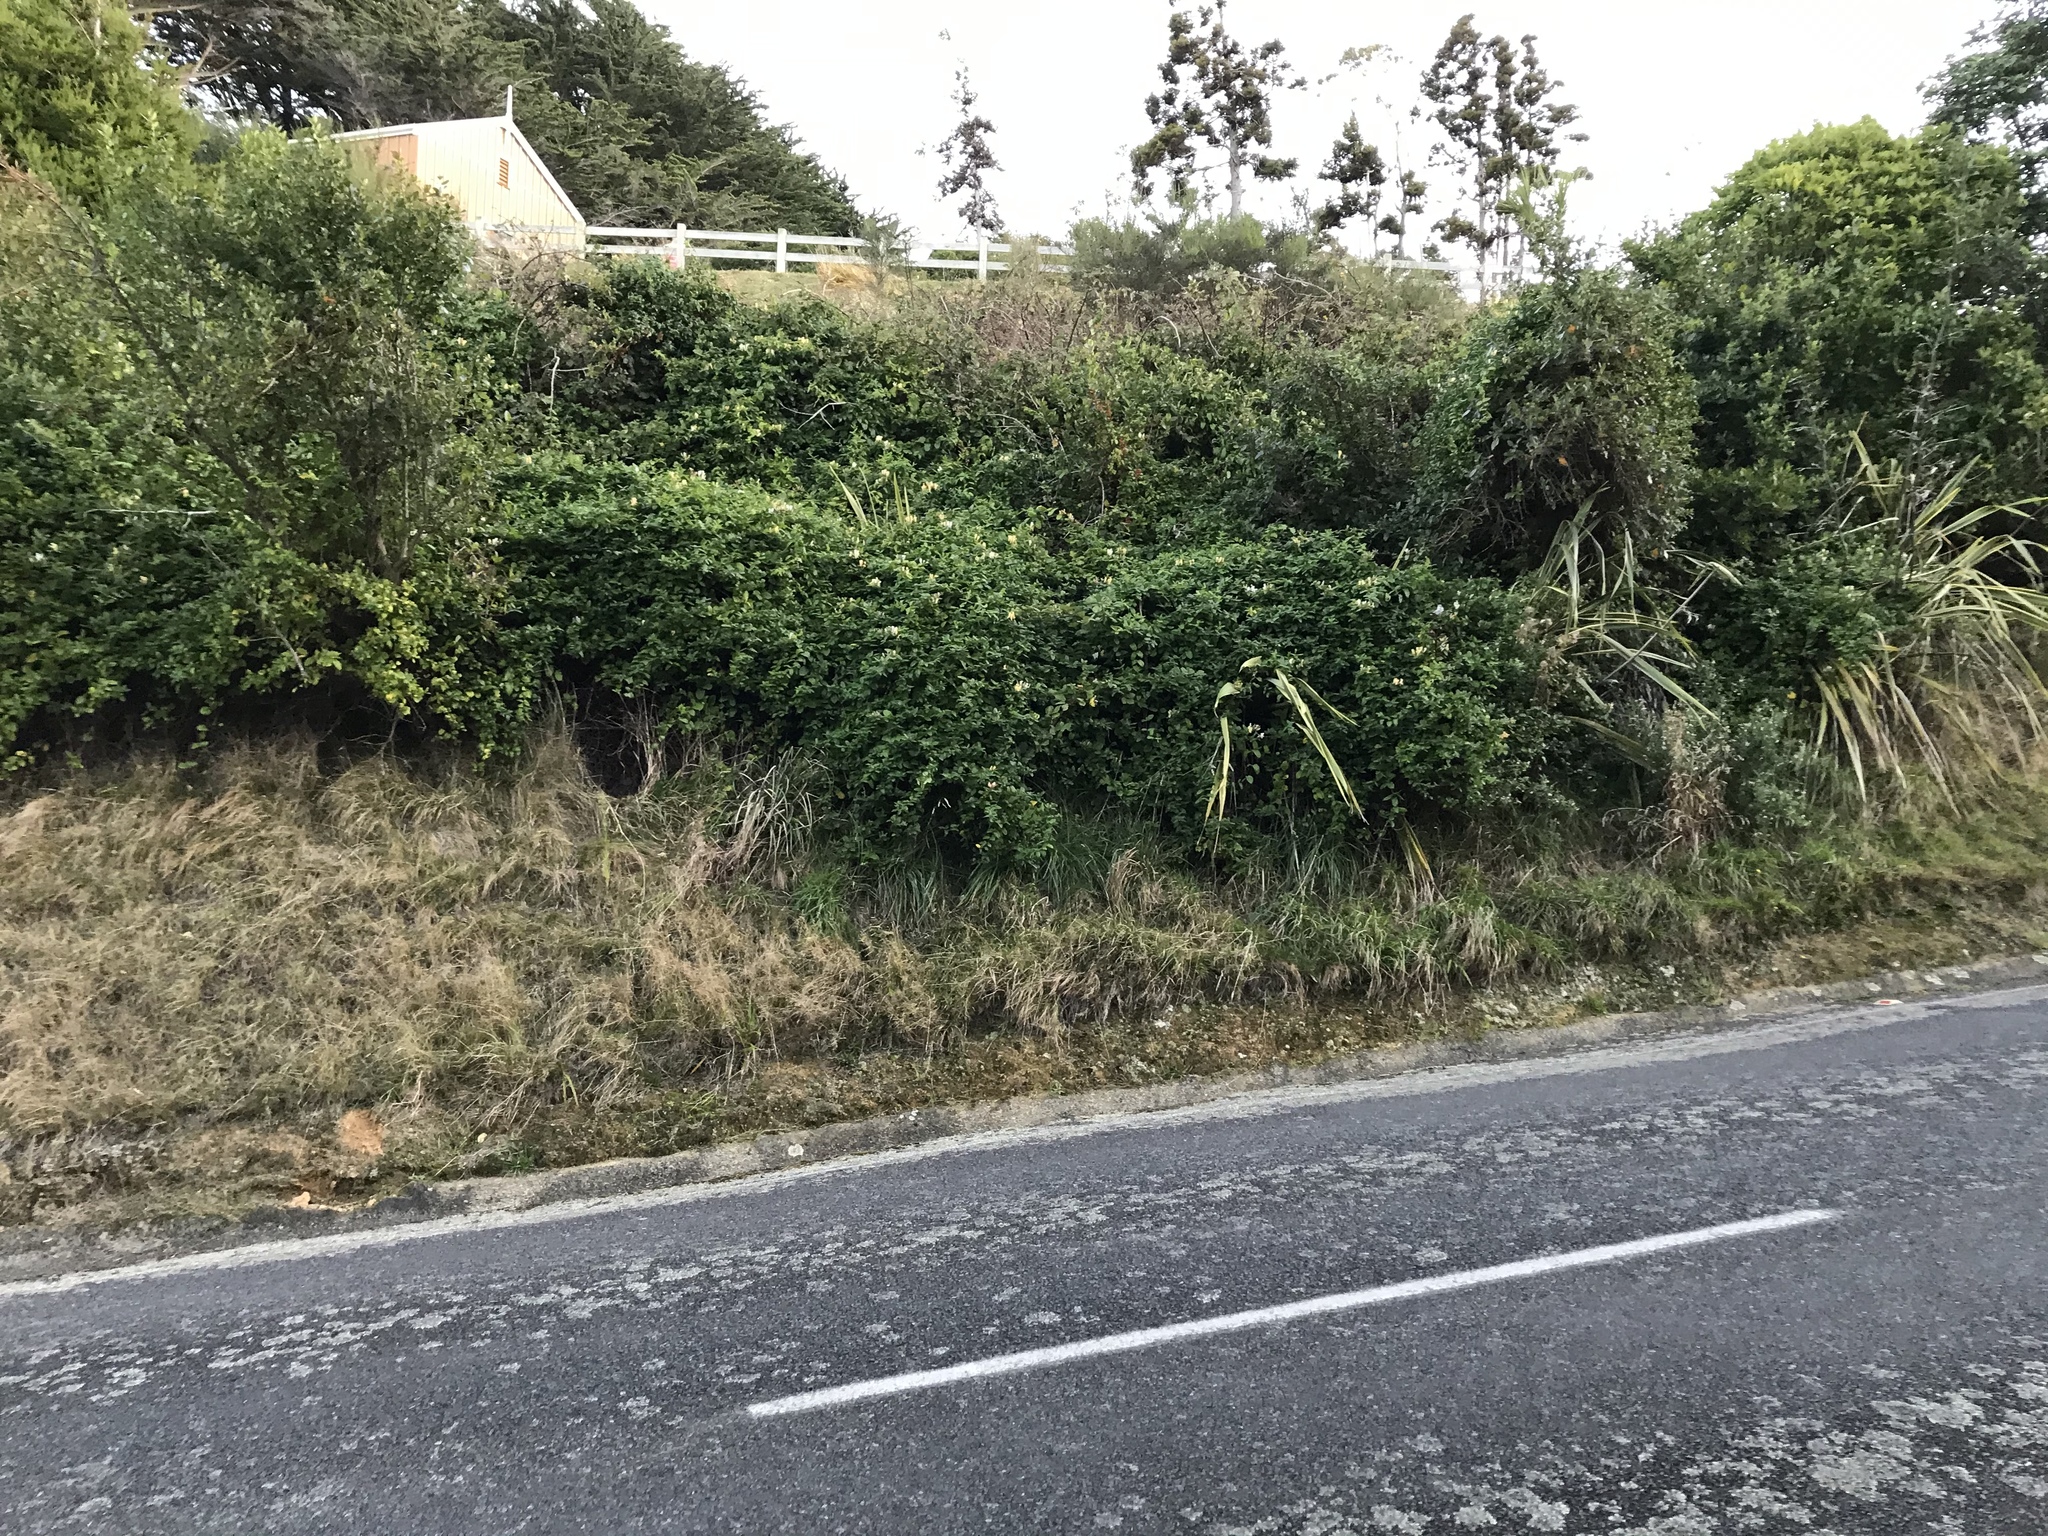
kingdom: Plantae
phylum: Tracheophyta
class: Magnoliopsida
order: Dipsacales
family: Caprifoliaceae
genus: Lonicera
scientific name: Lonicera japonica
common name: Japanese honeysuckle
